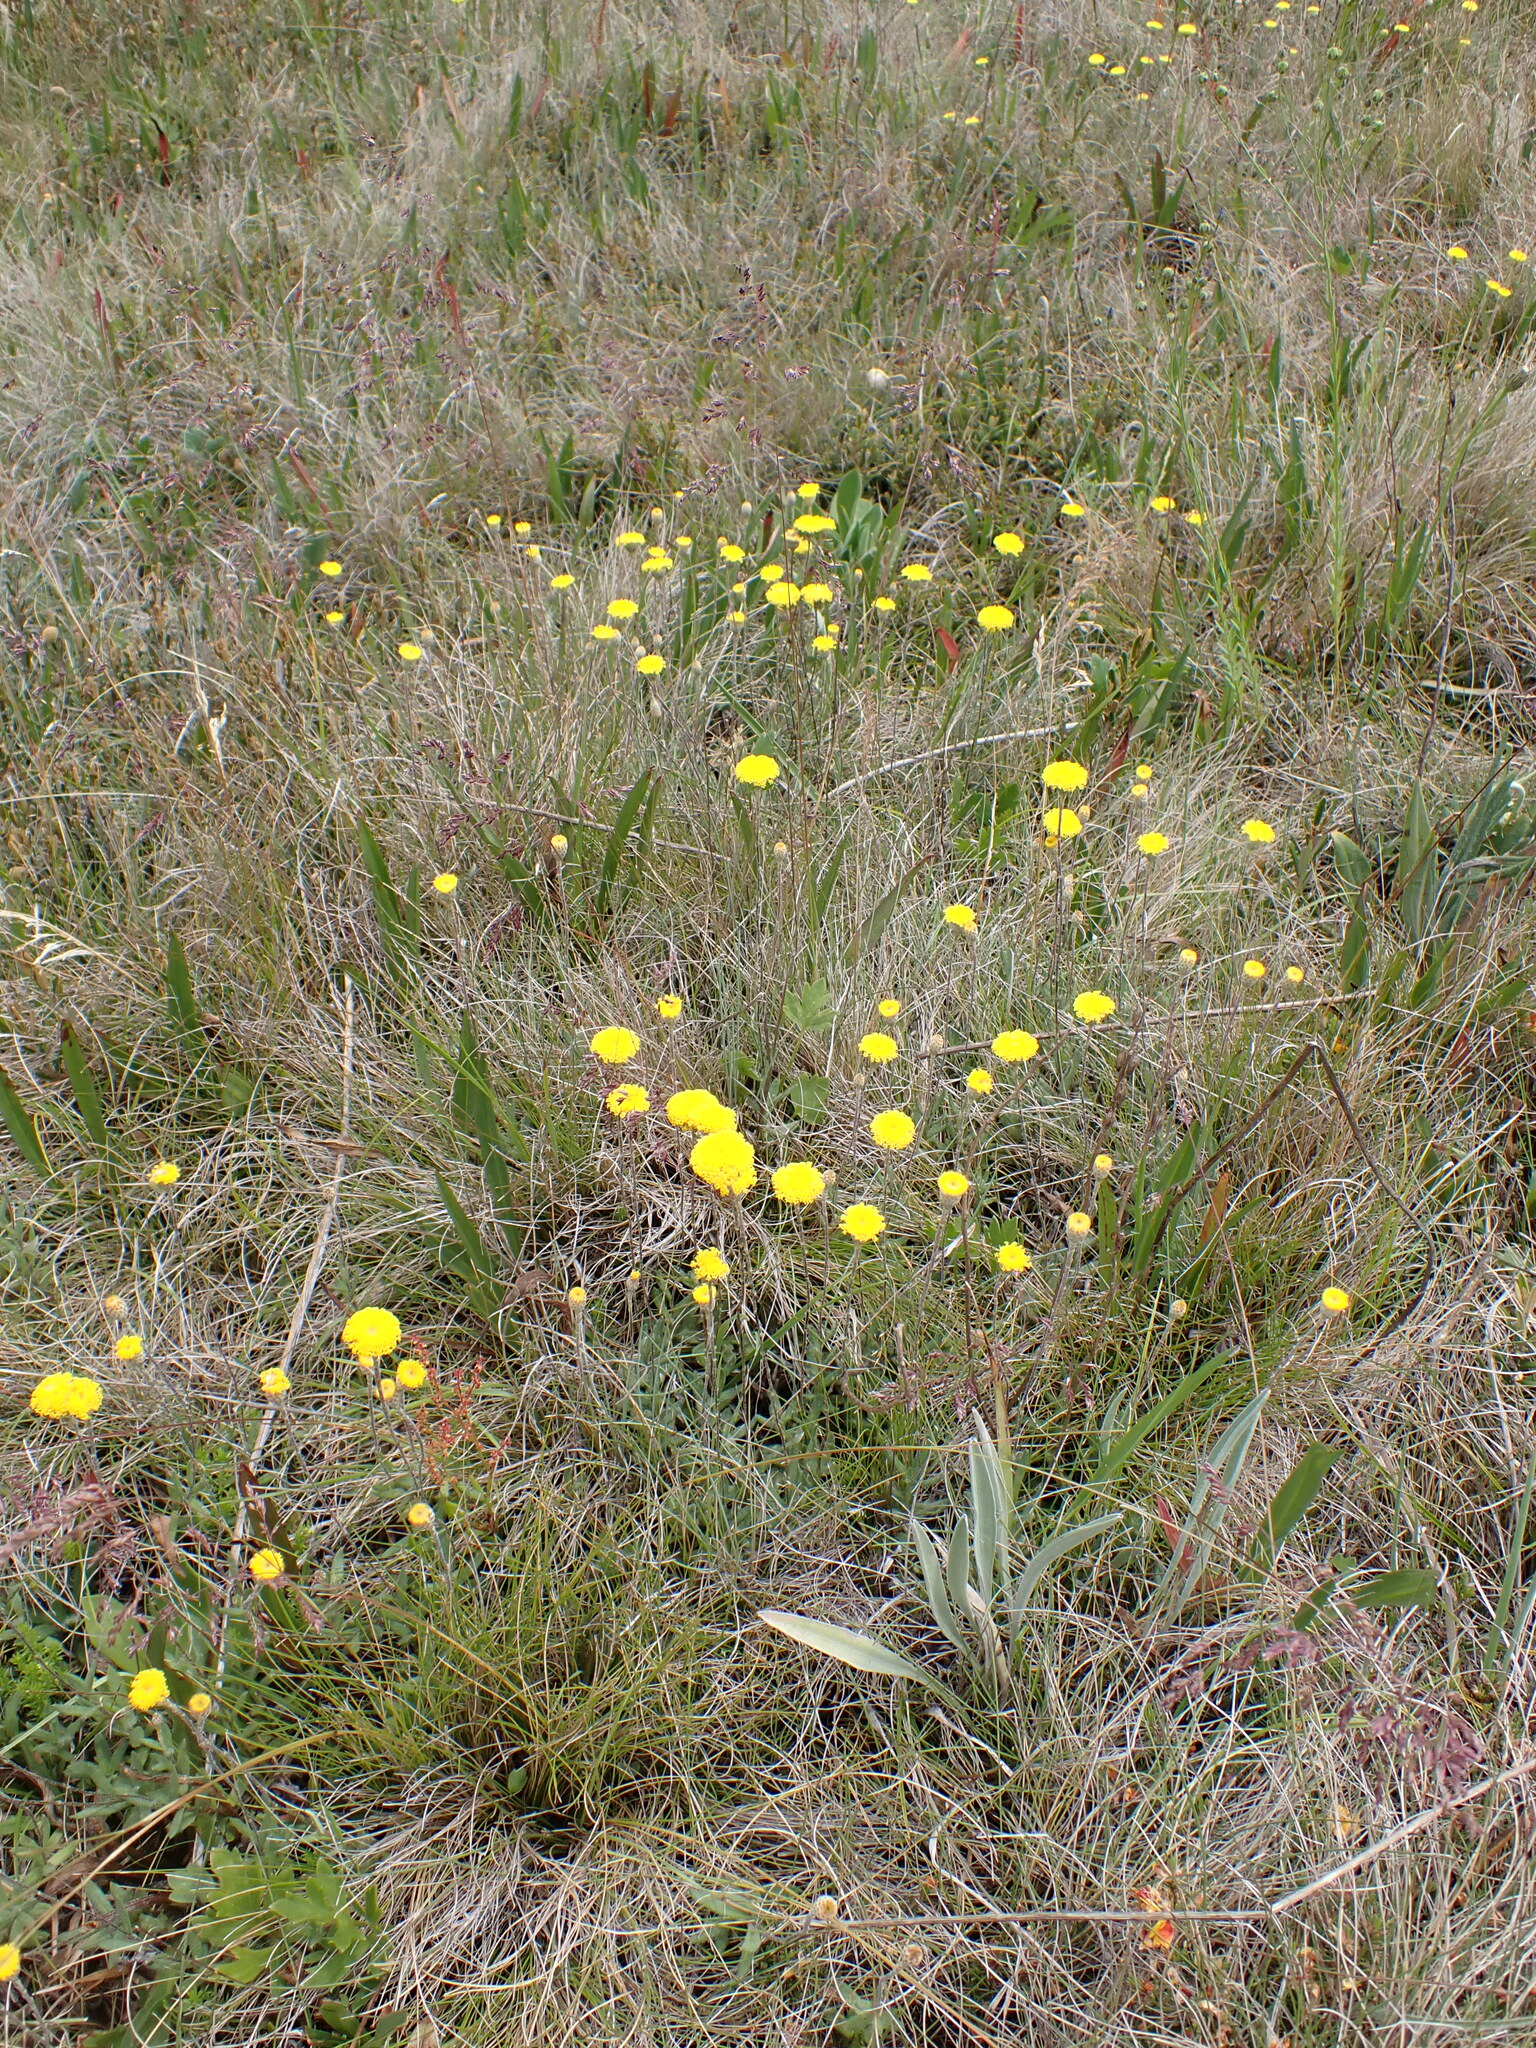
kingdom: Plantae
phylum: Tracheophyta
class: Magnoliopsida
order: Asterales
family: Asteraceae
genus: Leptorhynchos
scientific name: Leptorhynchos squamatus
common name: Scaly-buttons
